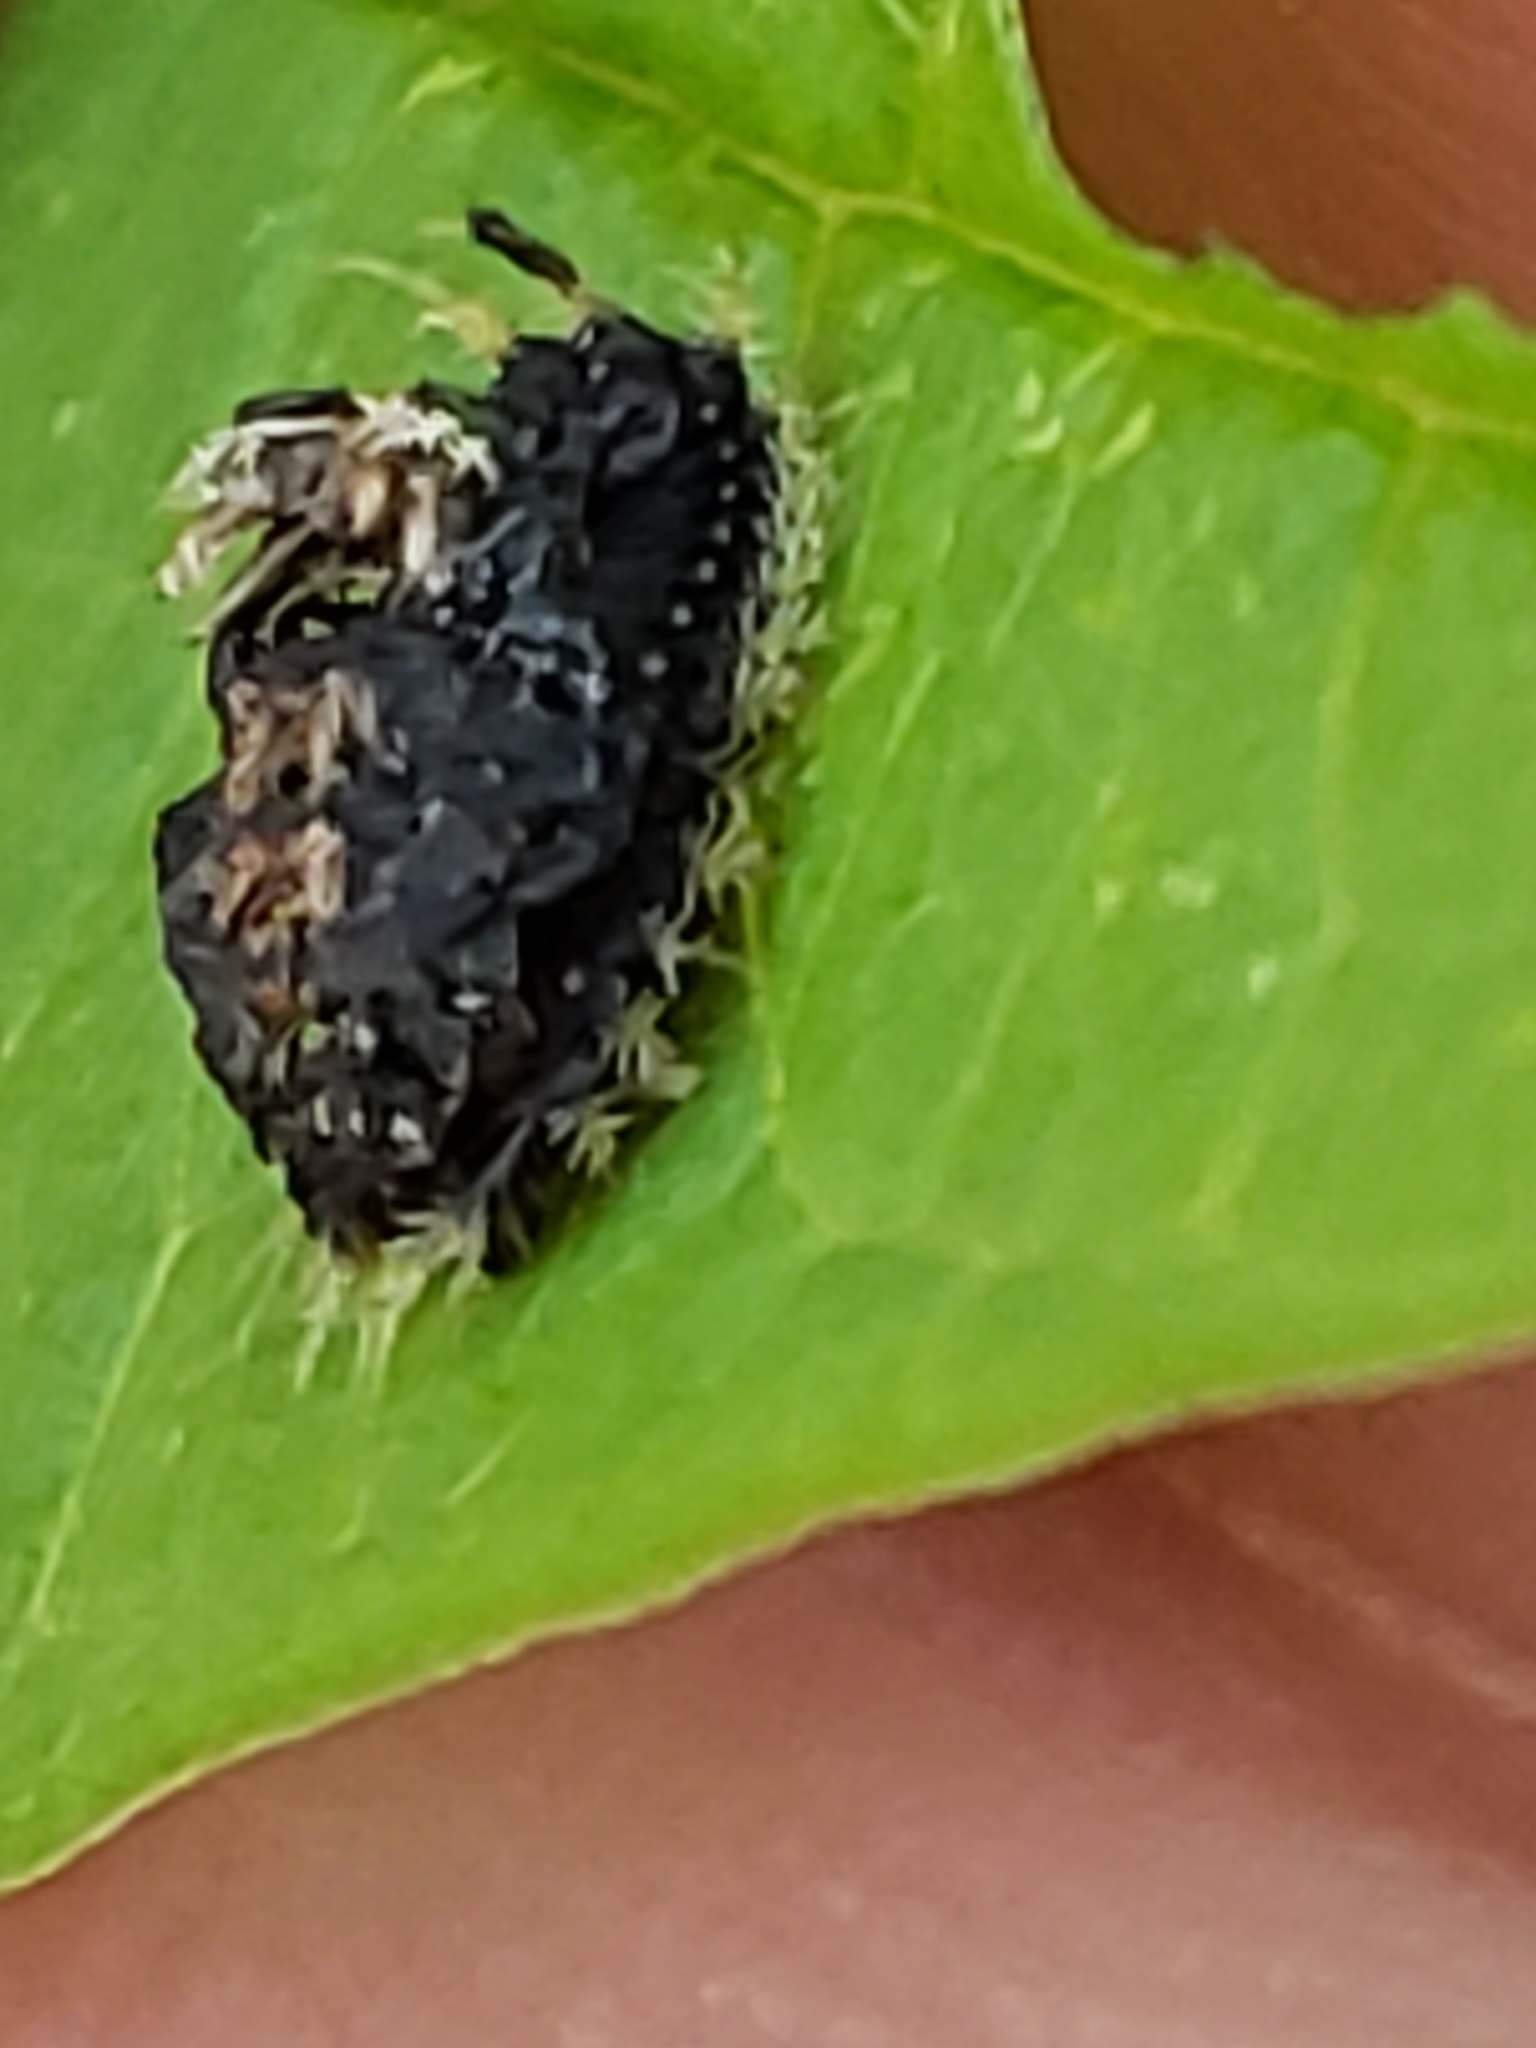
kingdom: Animalia
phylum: Arthropoda
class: Insecta
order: Coleoptera
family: Chrysomelidae
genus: Charidotella
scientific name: Charidotella sexpunctata
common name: Golden tortoise beetle
